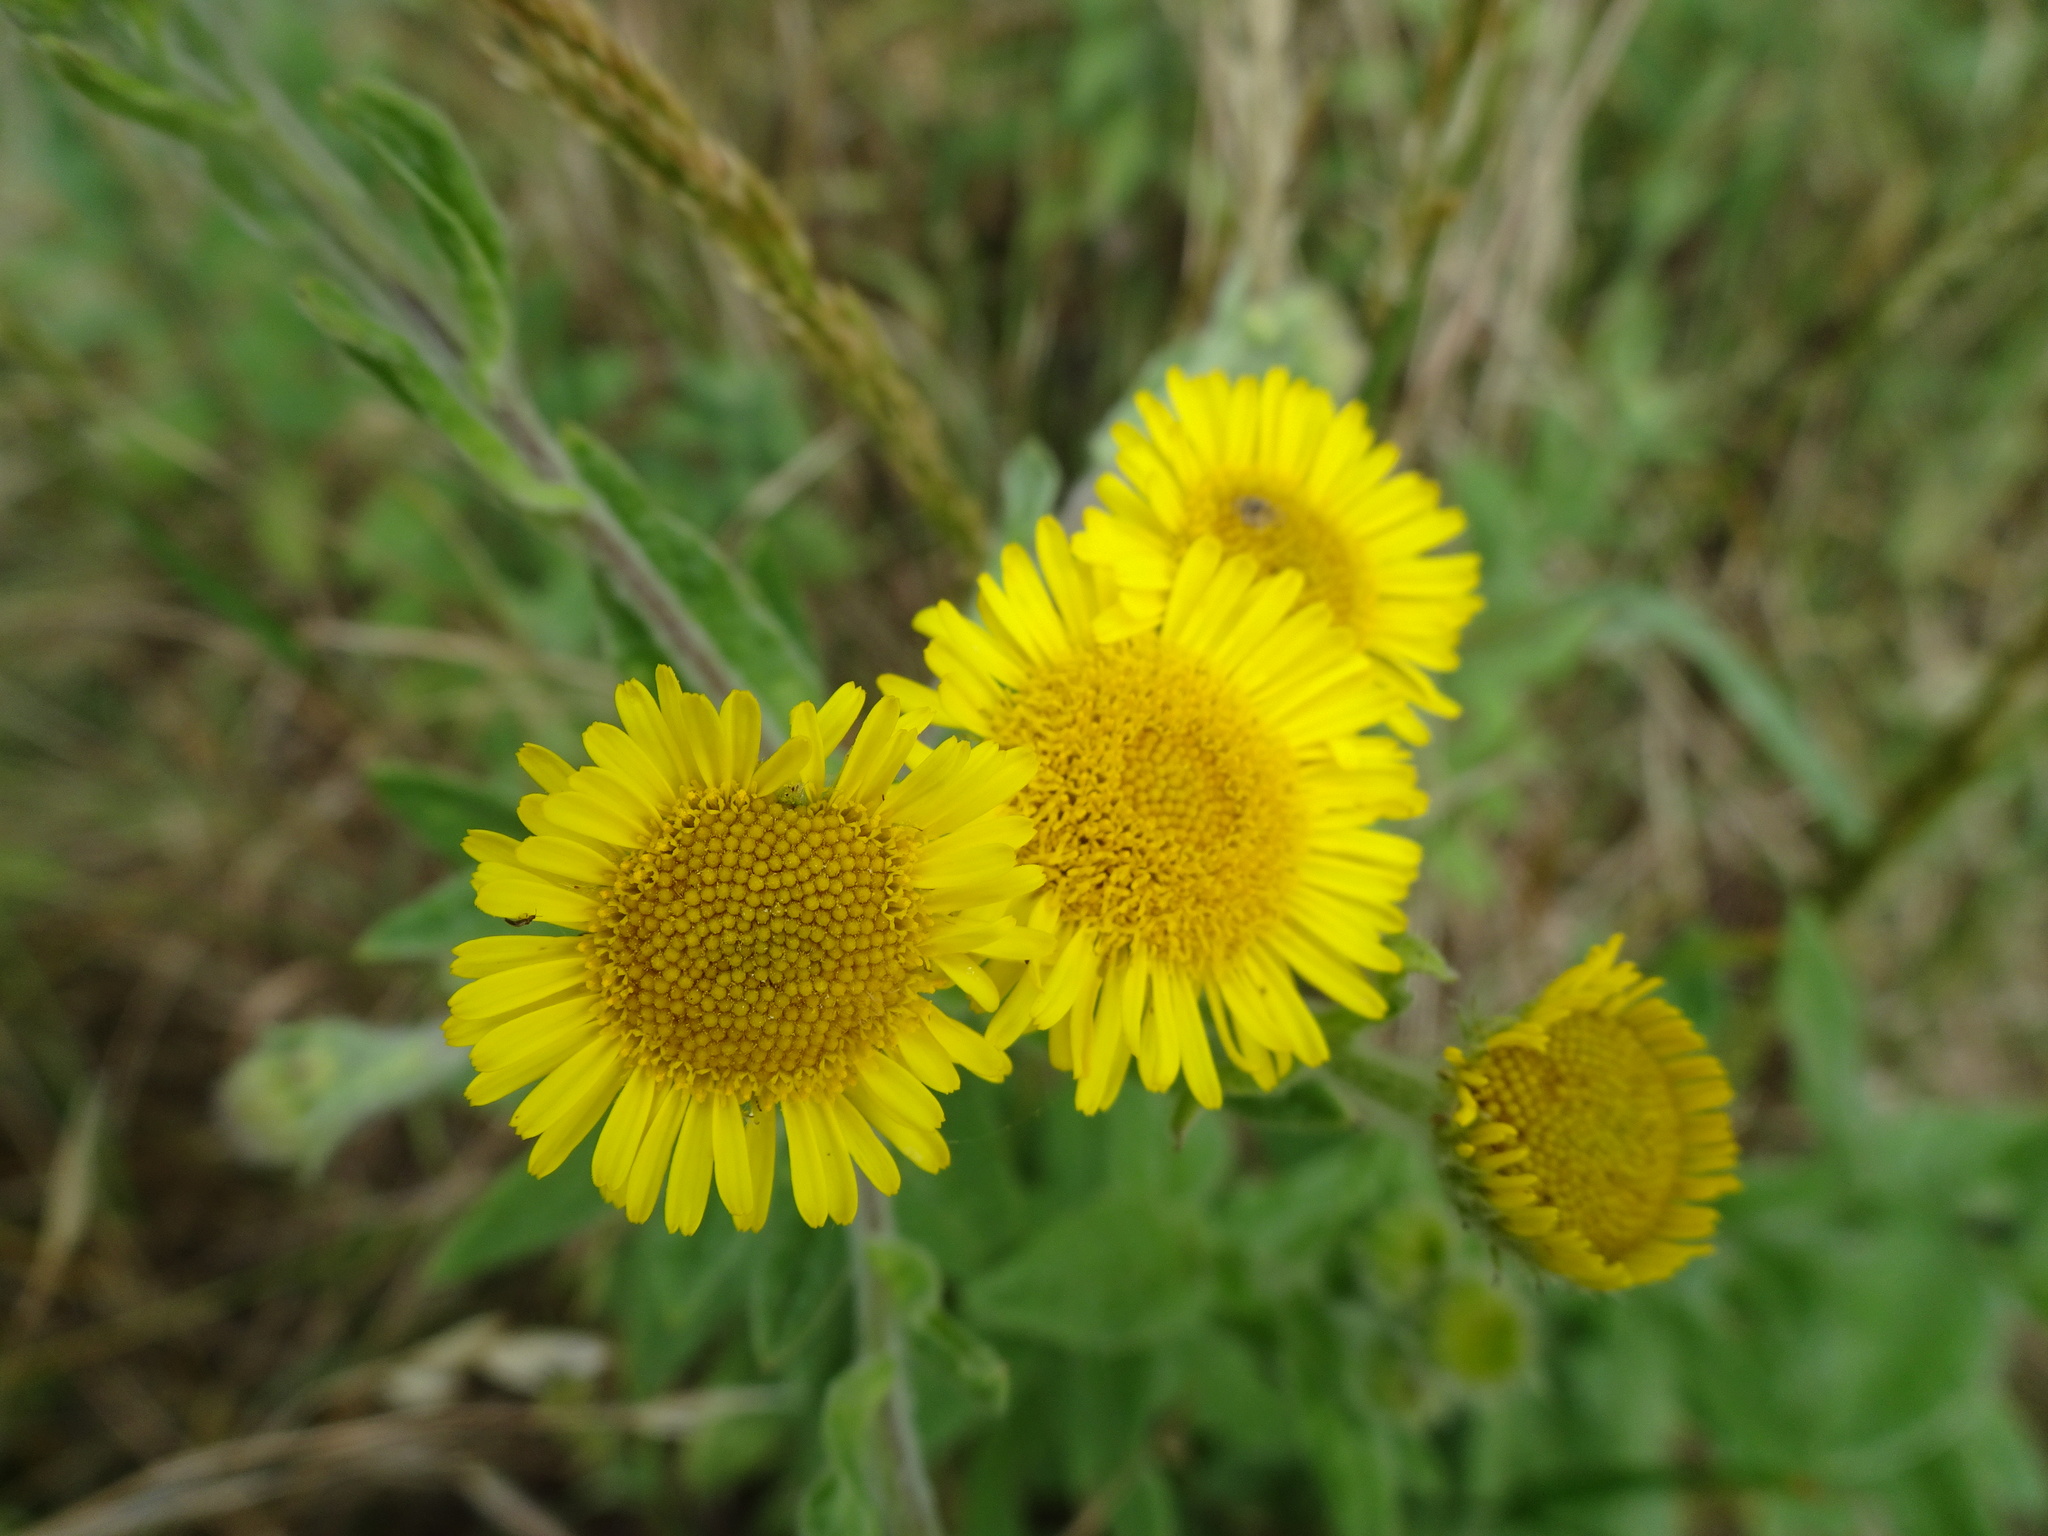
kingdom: Plantae
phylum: Tracheophyta
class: Magnoliopsida
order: Asterales
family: Asteraceae
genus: Pulicaria
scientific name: Pulicaria dysenterica
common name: Common fleabane
